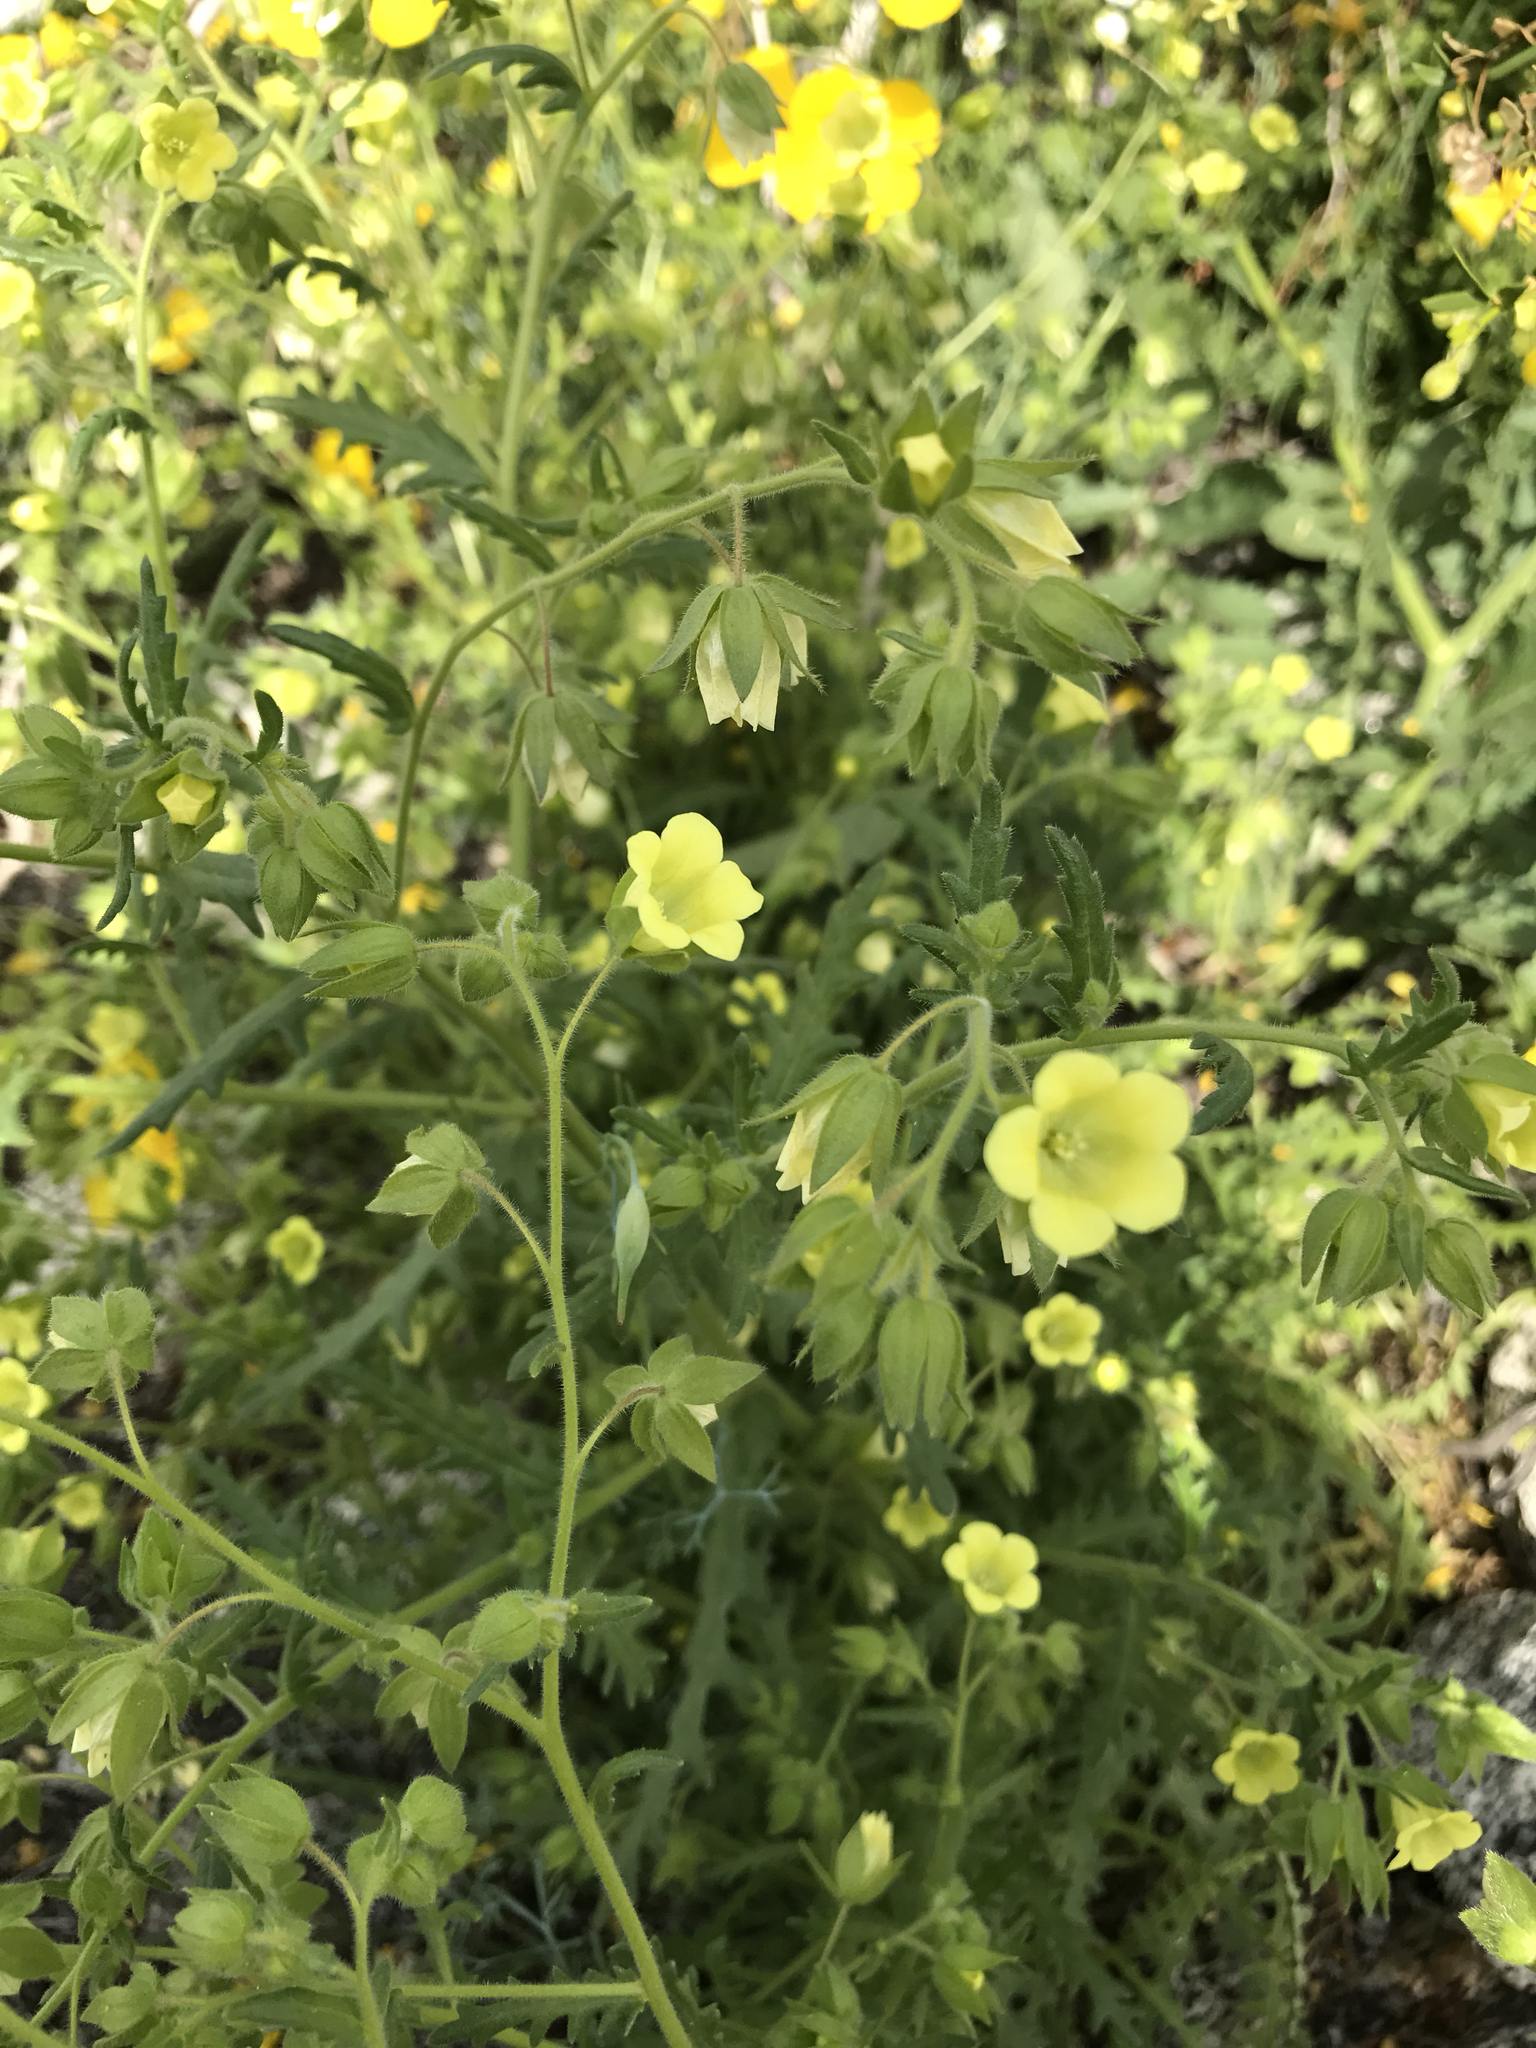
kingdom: Plantae
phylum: Tracheophyta
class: Magnoliopsida
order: Boraginales
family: Hydrophyllaceae
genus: Emmenanthe
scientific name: Emmenanthe penduliflora
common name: Whispering-bells
